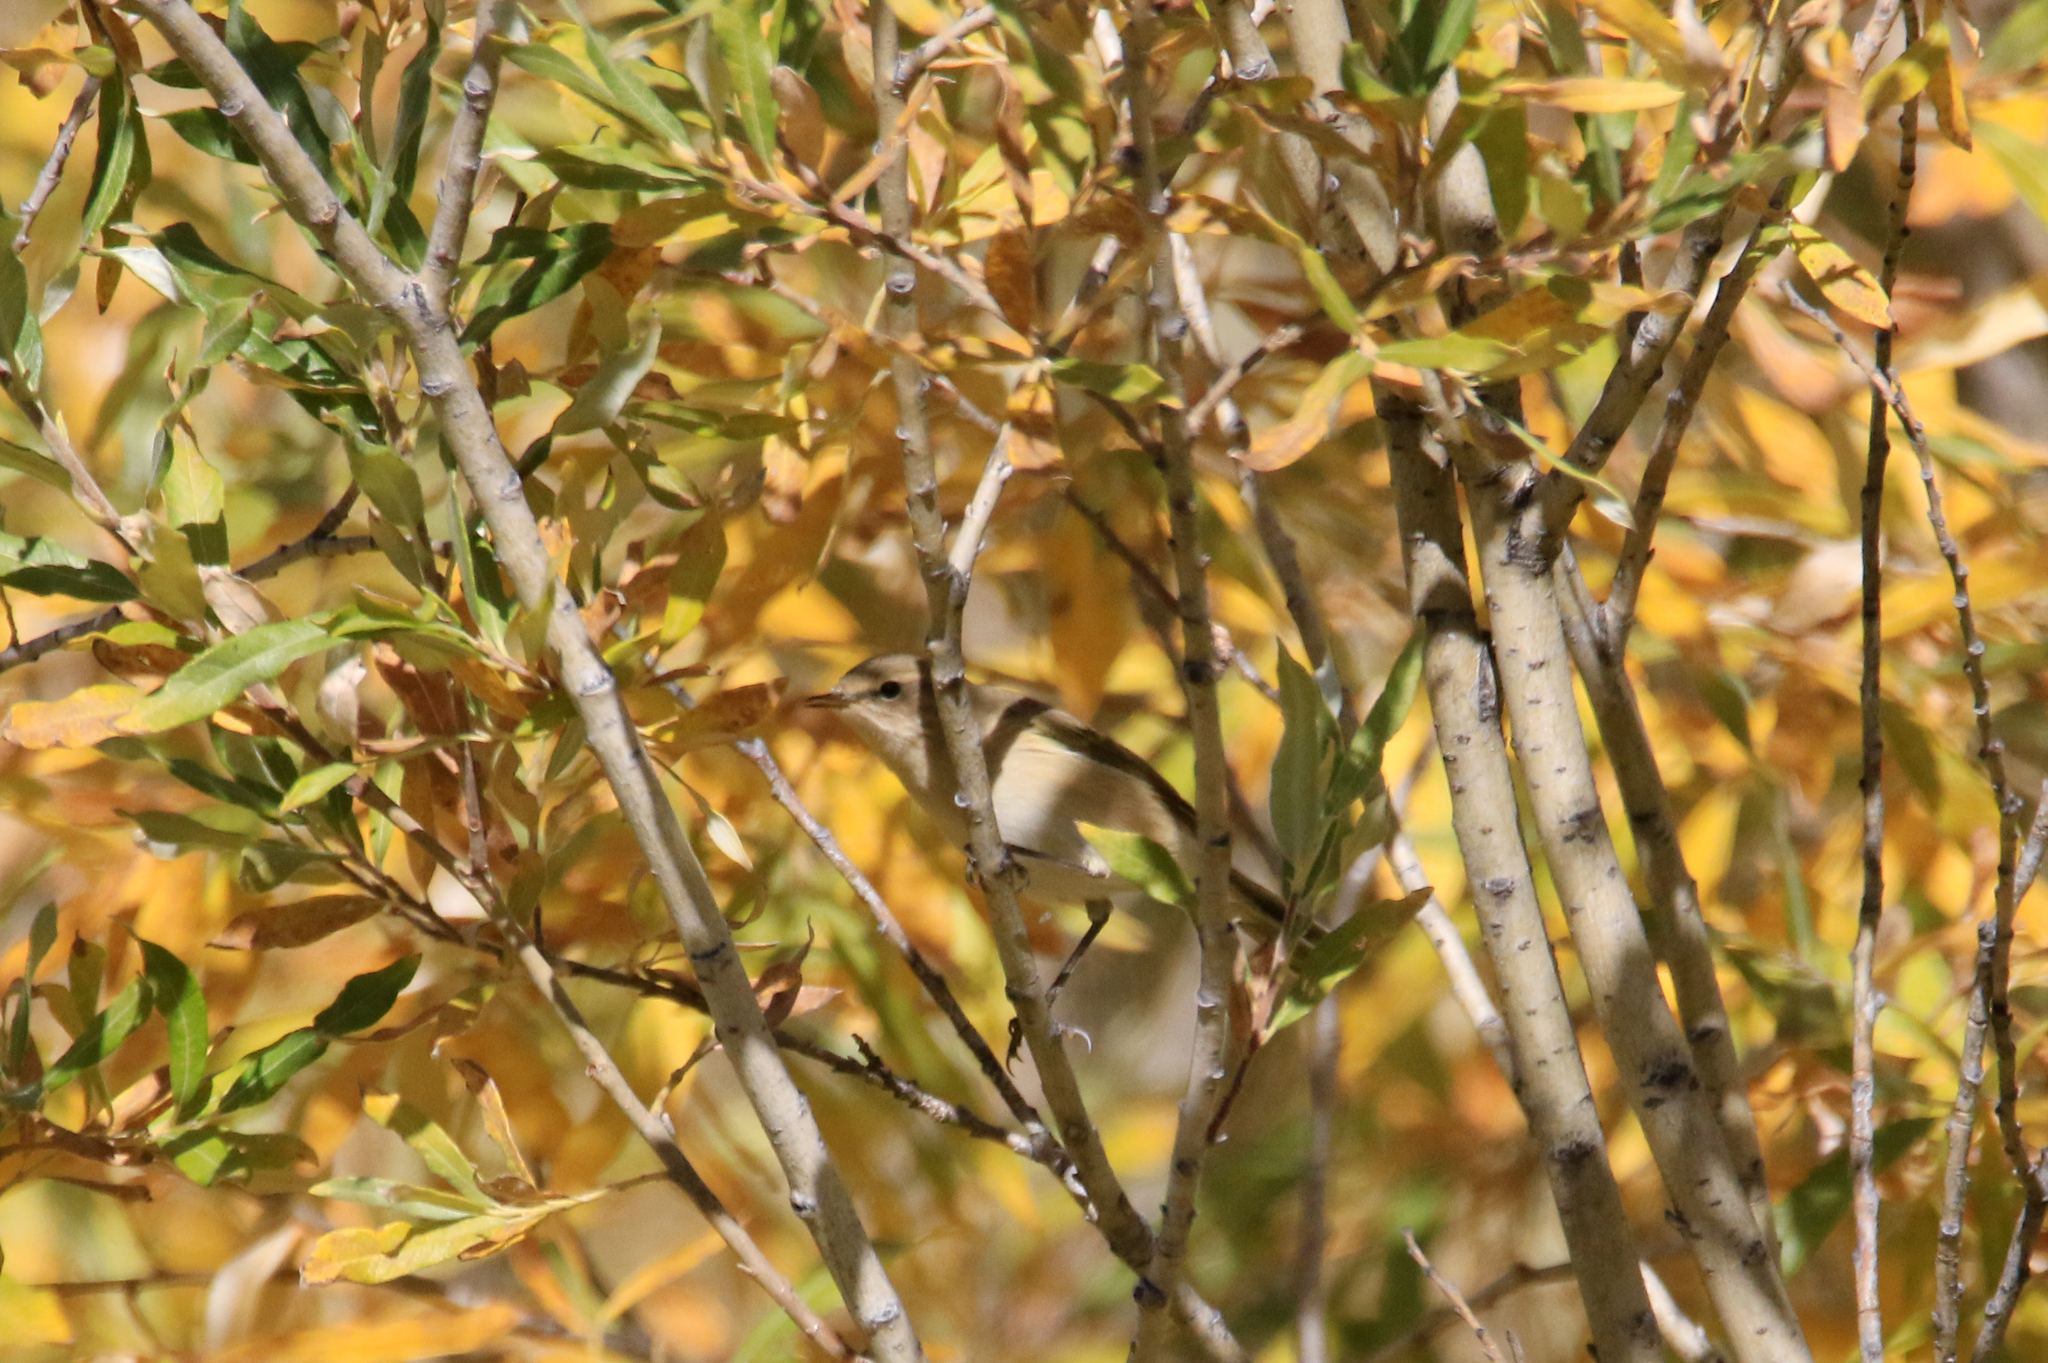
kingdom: Animalia
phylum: Chordata
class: Aves
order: Passeriformes
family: Phylloscopidae
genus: Phylloscopus
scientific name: Phylloscopus collybita
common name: Common chiffchaff
